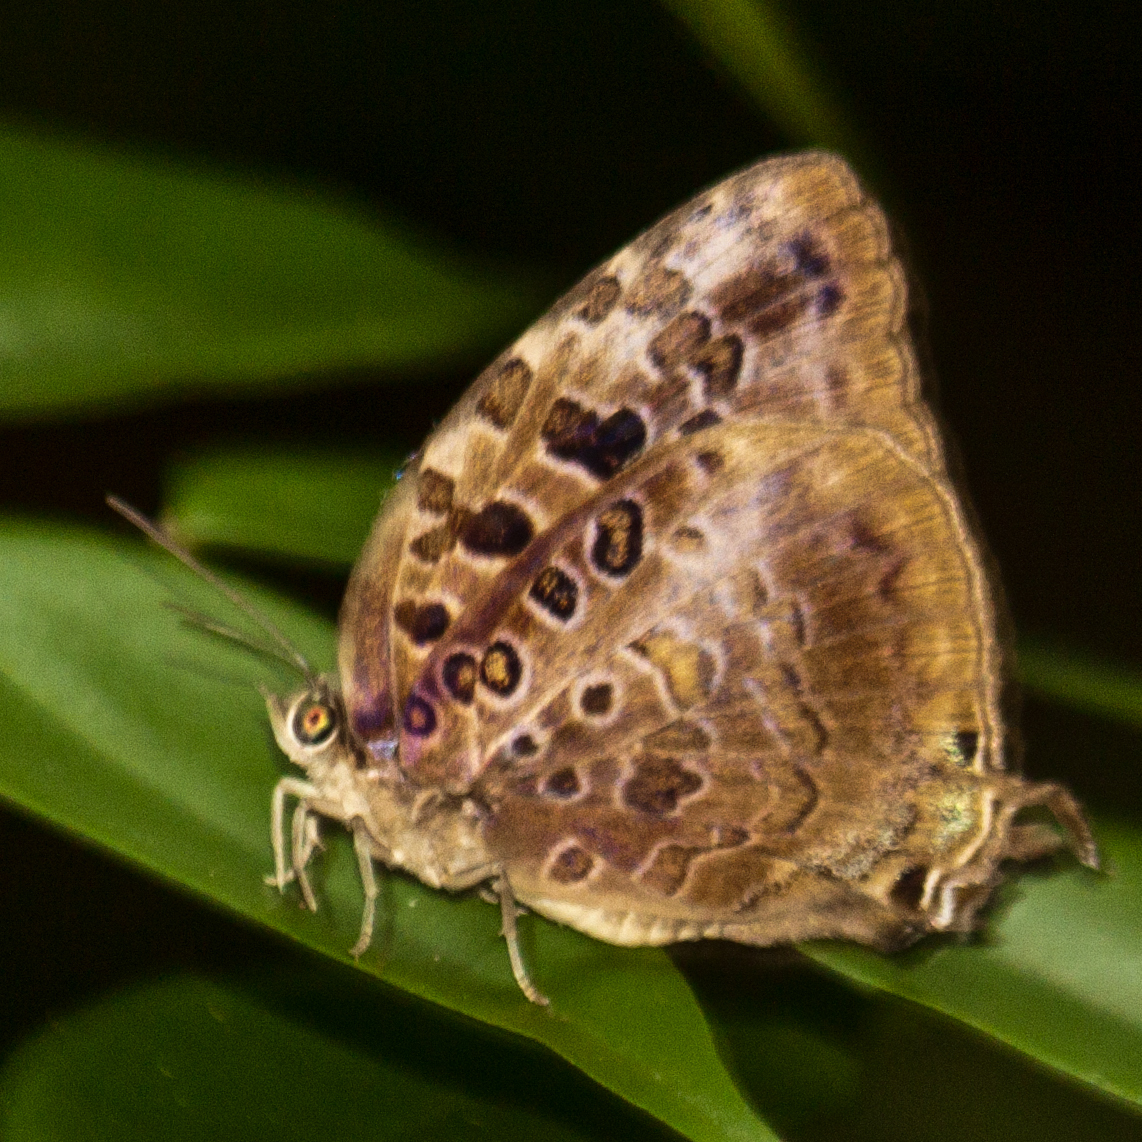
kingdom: Animalia
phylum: Arthropoda
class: Insecta
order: Lepidoptera
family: Lycaenidae
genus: Arhopala
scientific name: Arhopala anthelus
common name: Bushblue
